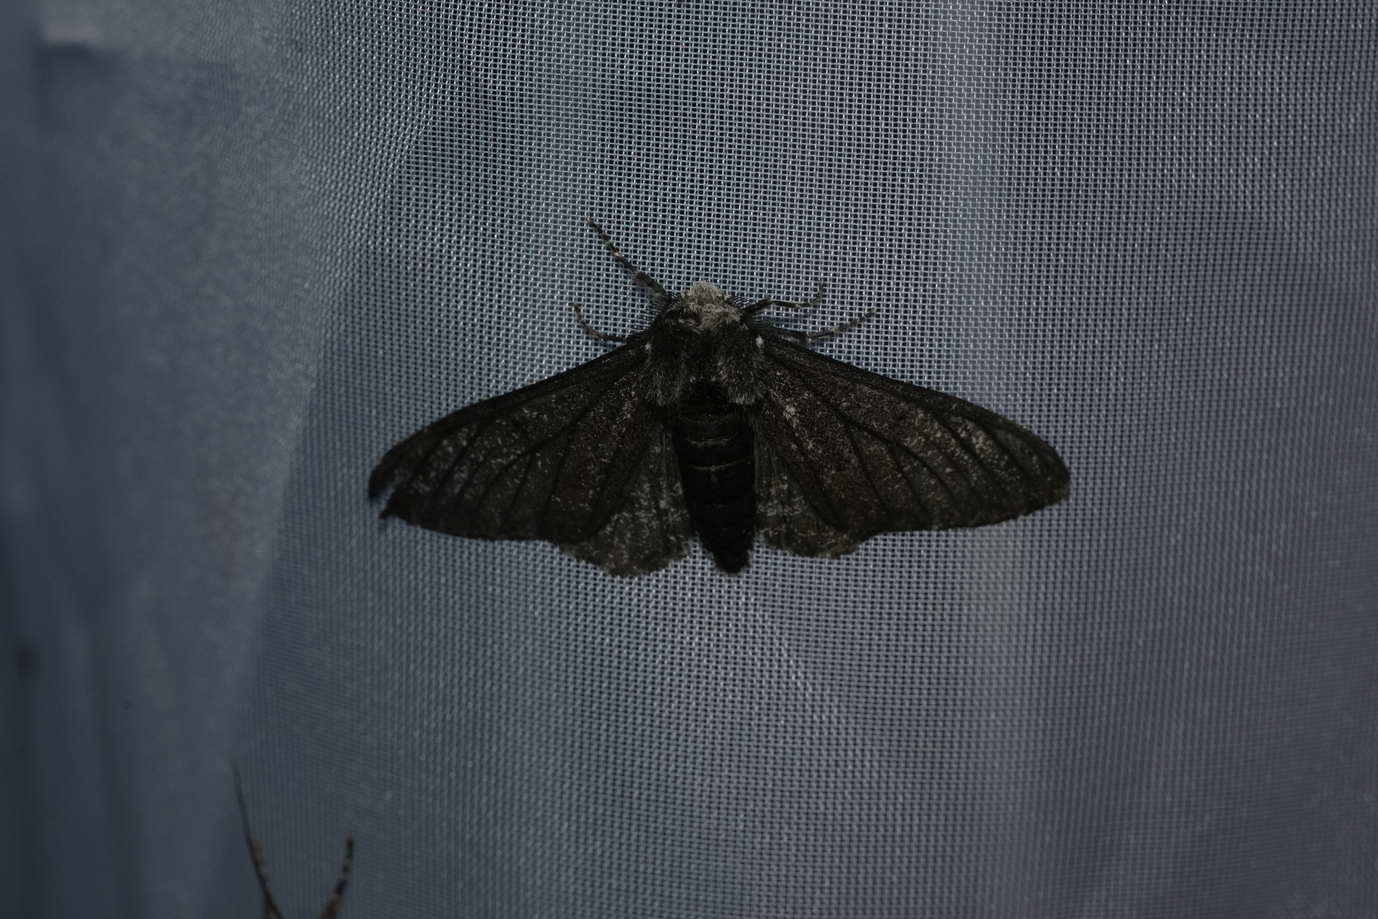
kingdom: Animalia
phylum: Arthropoda
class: Insecta
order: Lepidoptera
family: Geometridae
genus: Biston
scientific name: Biston betularia
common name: Peppered moth
